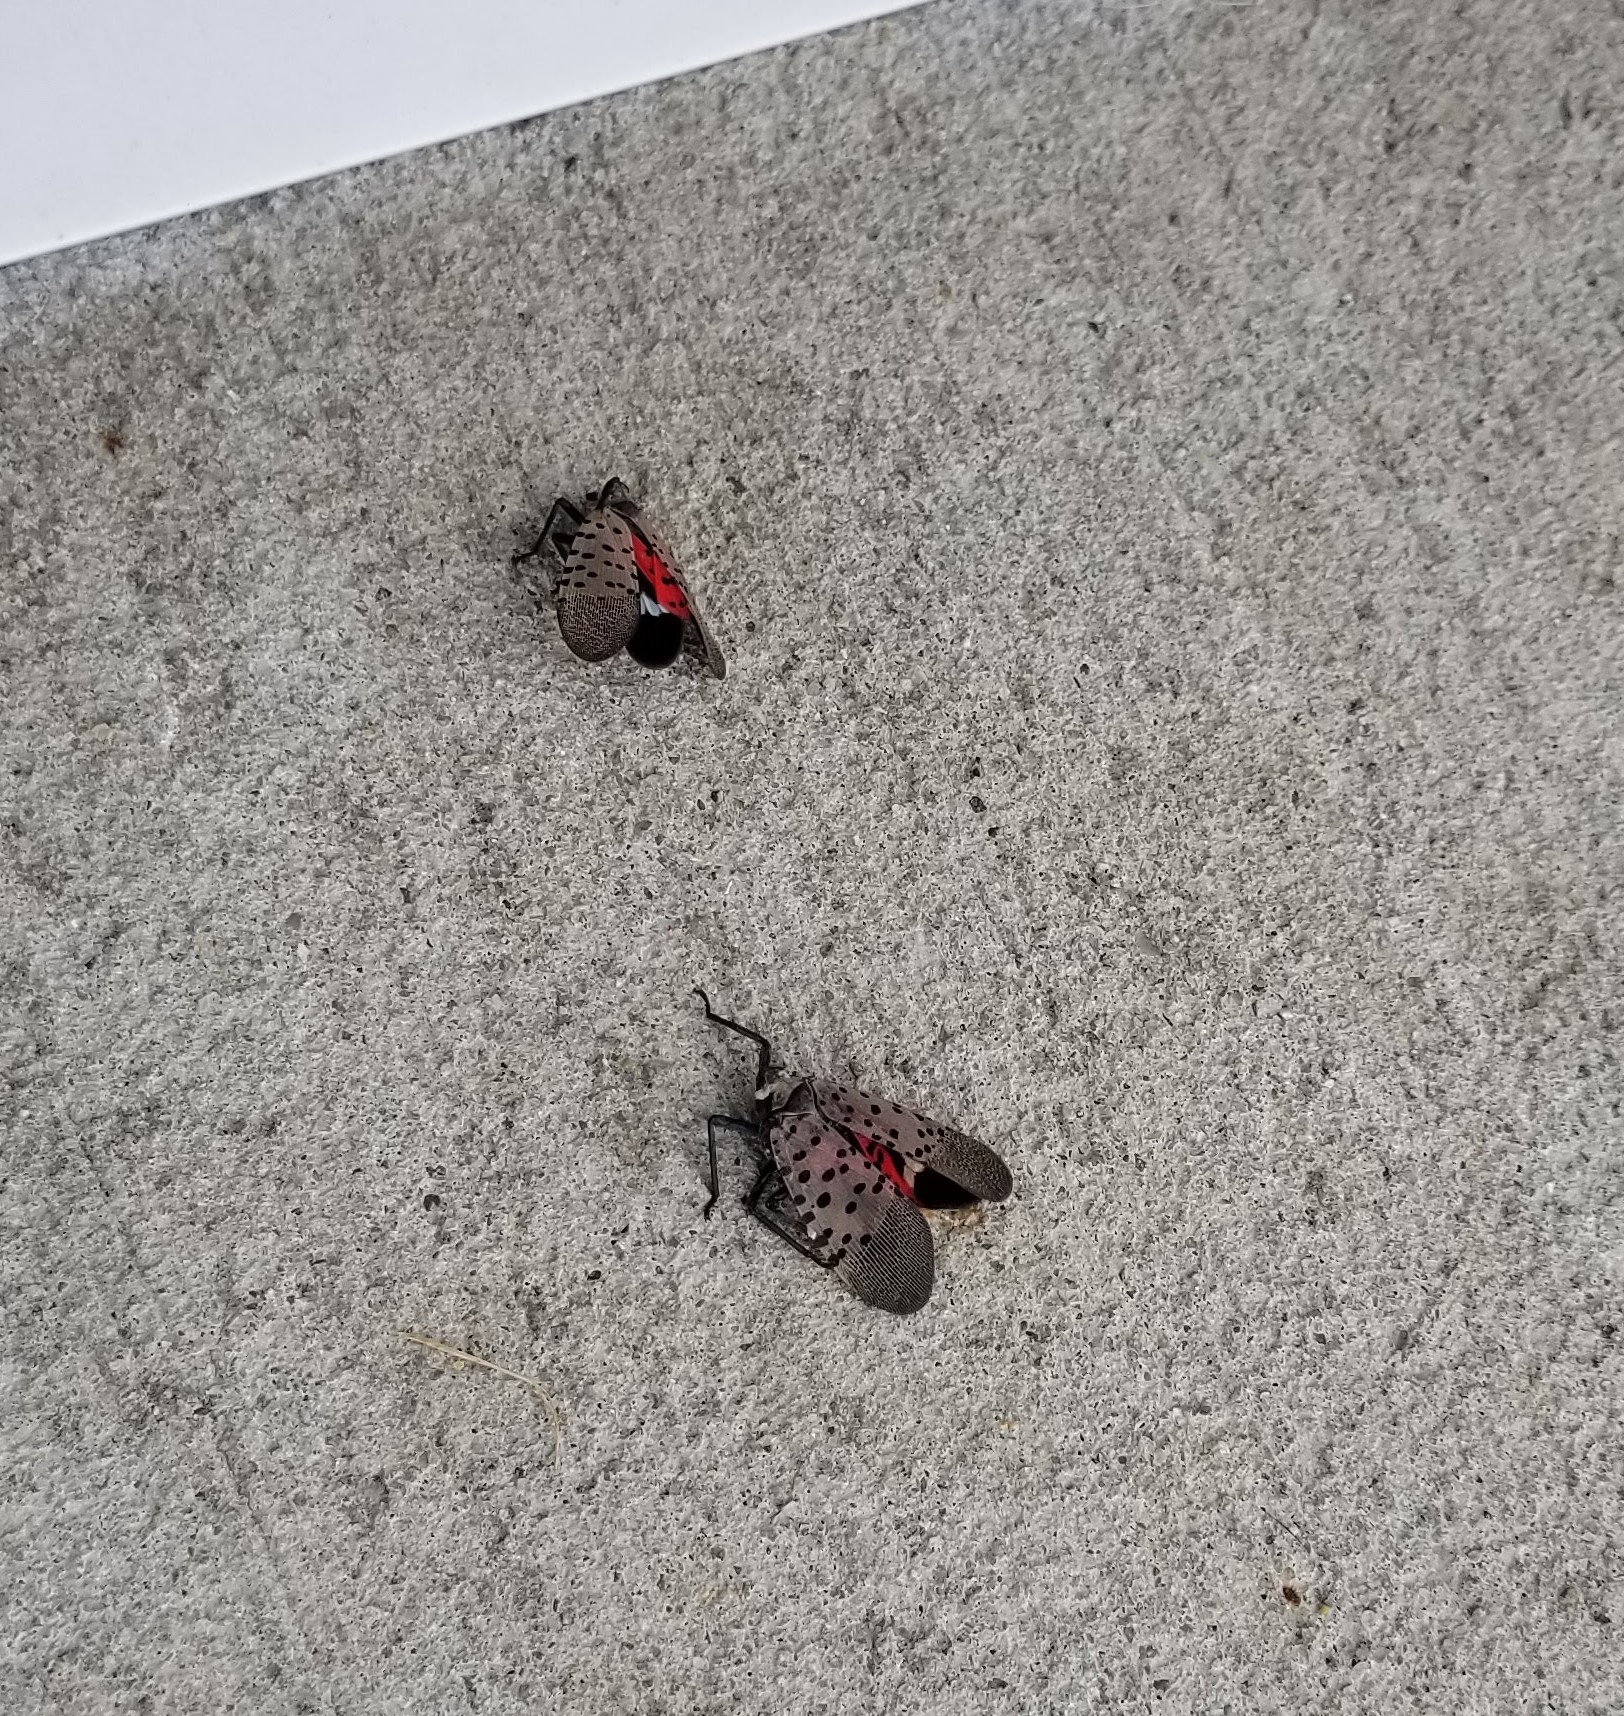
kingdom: Animalia
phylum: Arthropoda
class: Insecta
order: Hemiptera
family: Fulgoridae
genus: Lycorma
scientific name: Lycorma delicatula
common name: Spotted lanternfly
